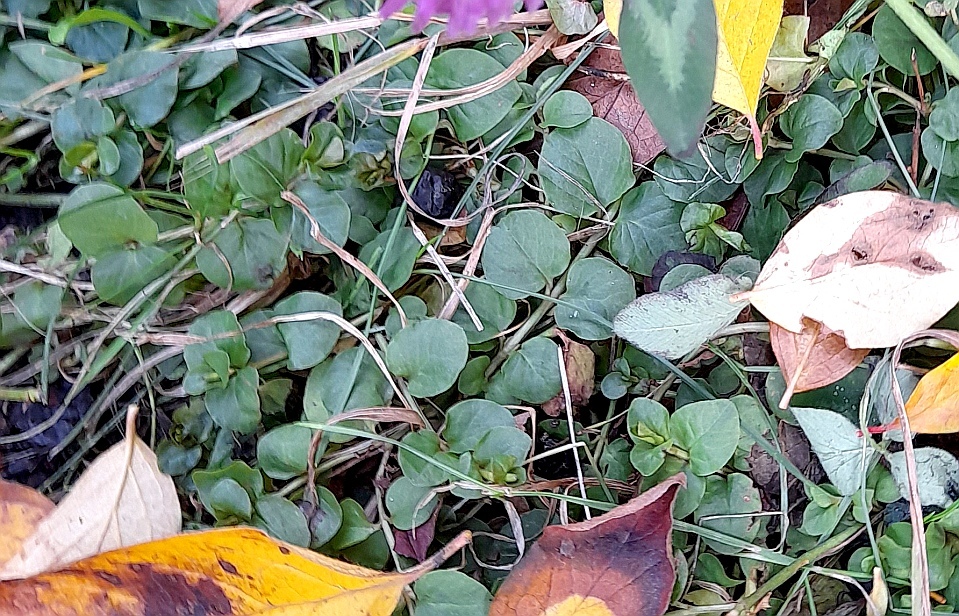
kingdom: Plantae
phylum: Tracheophyta
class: Magnoliopsida
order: Ericales
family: Primulaceae
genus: Lysimachia
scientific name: Lysimachia nummularia
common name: Moneywort
